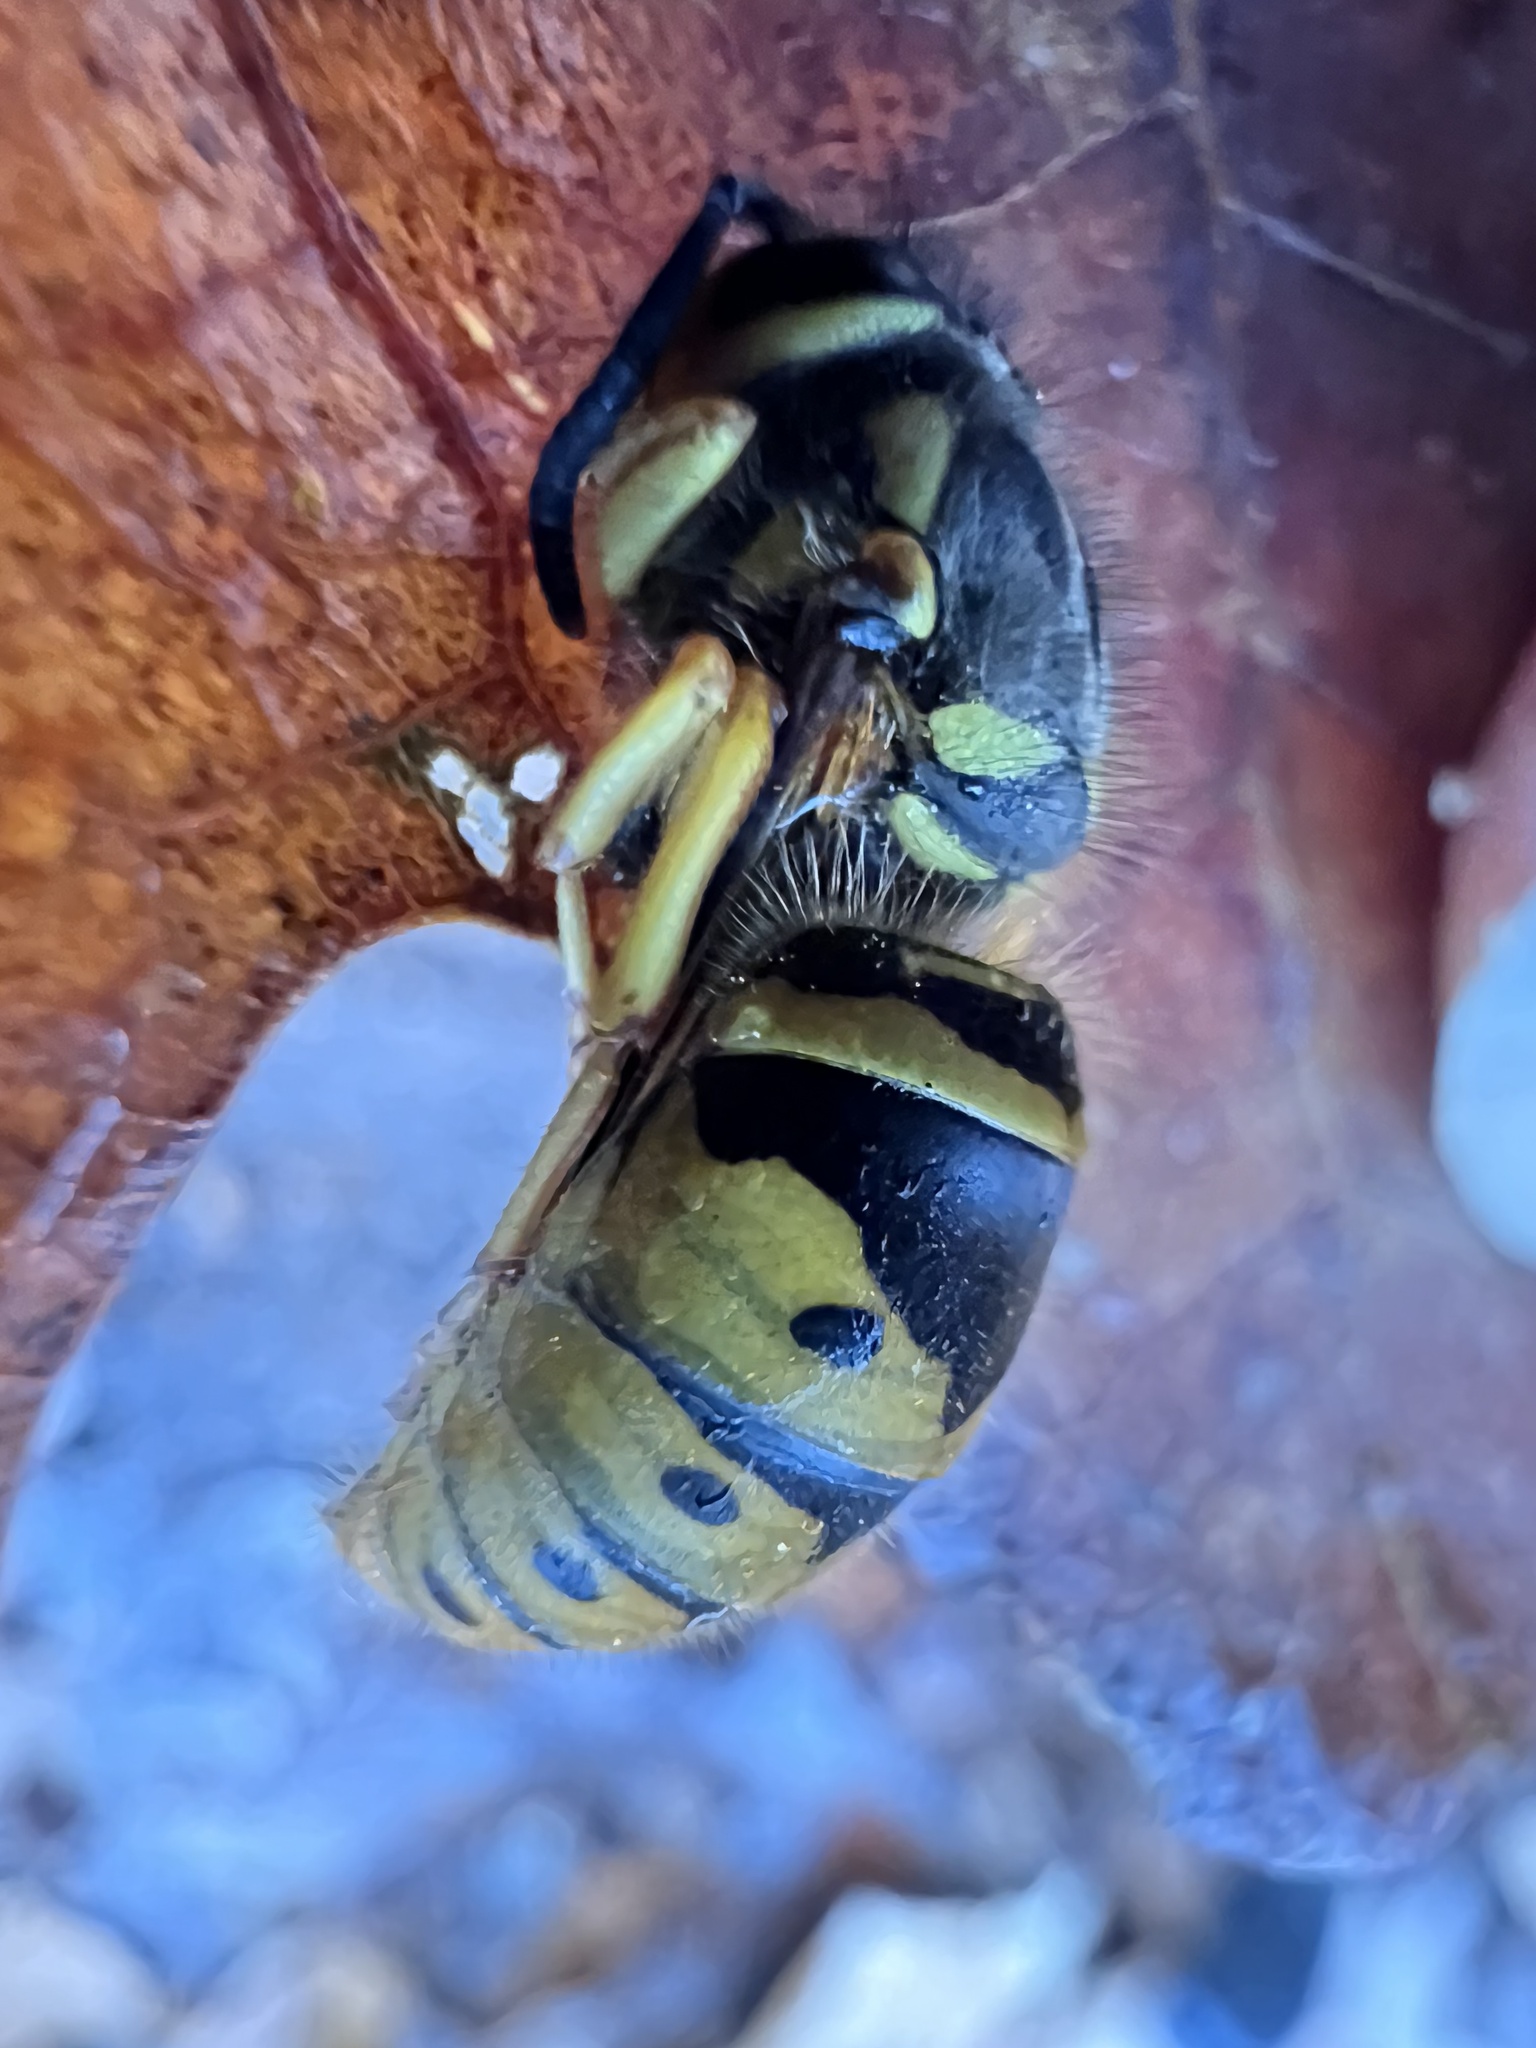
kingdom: Animalia
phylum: Arthropoda
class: Insecta
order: Hymenoptera
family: Vespidae
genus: Vespula
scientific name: Vespula maculifrons
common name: Eastern yellowjacket
